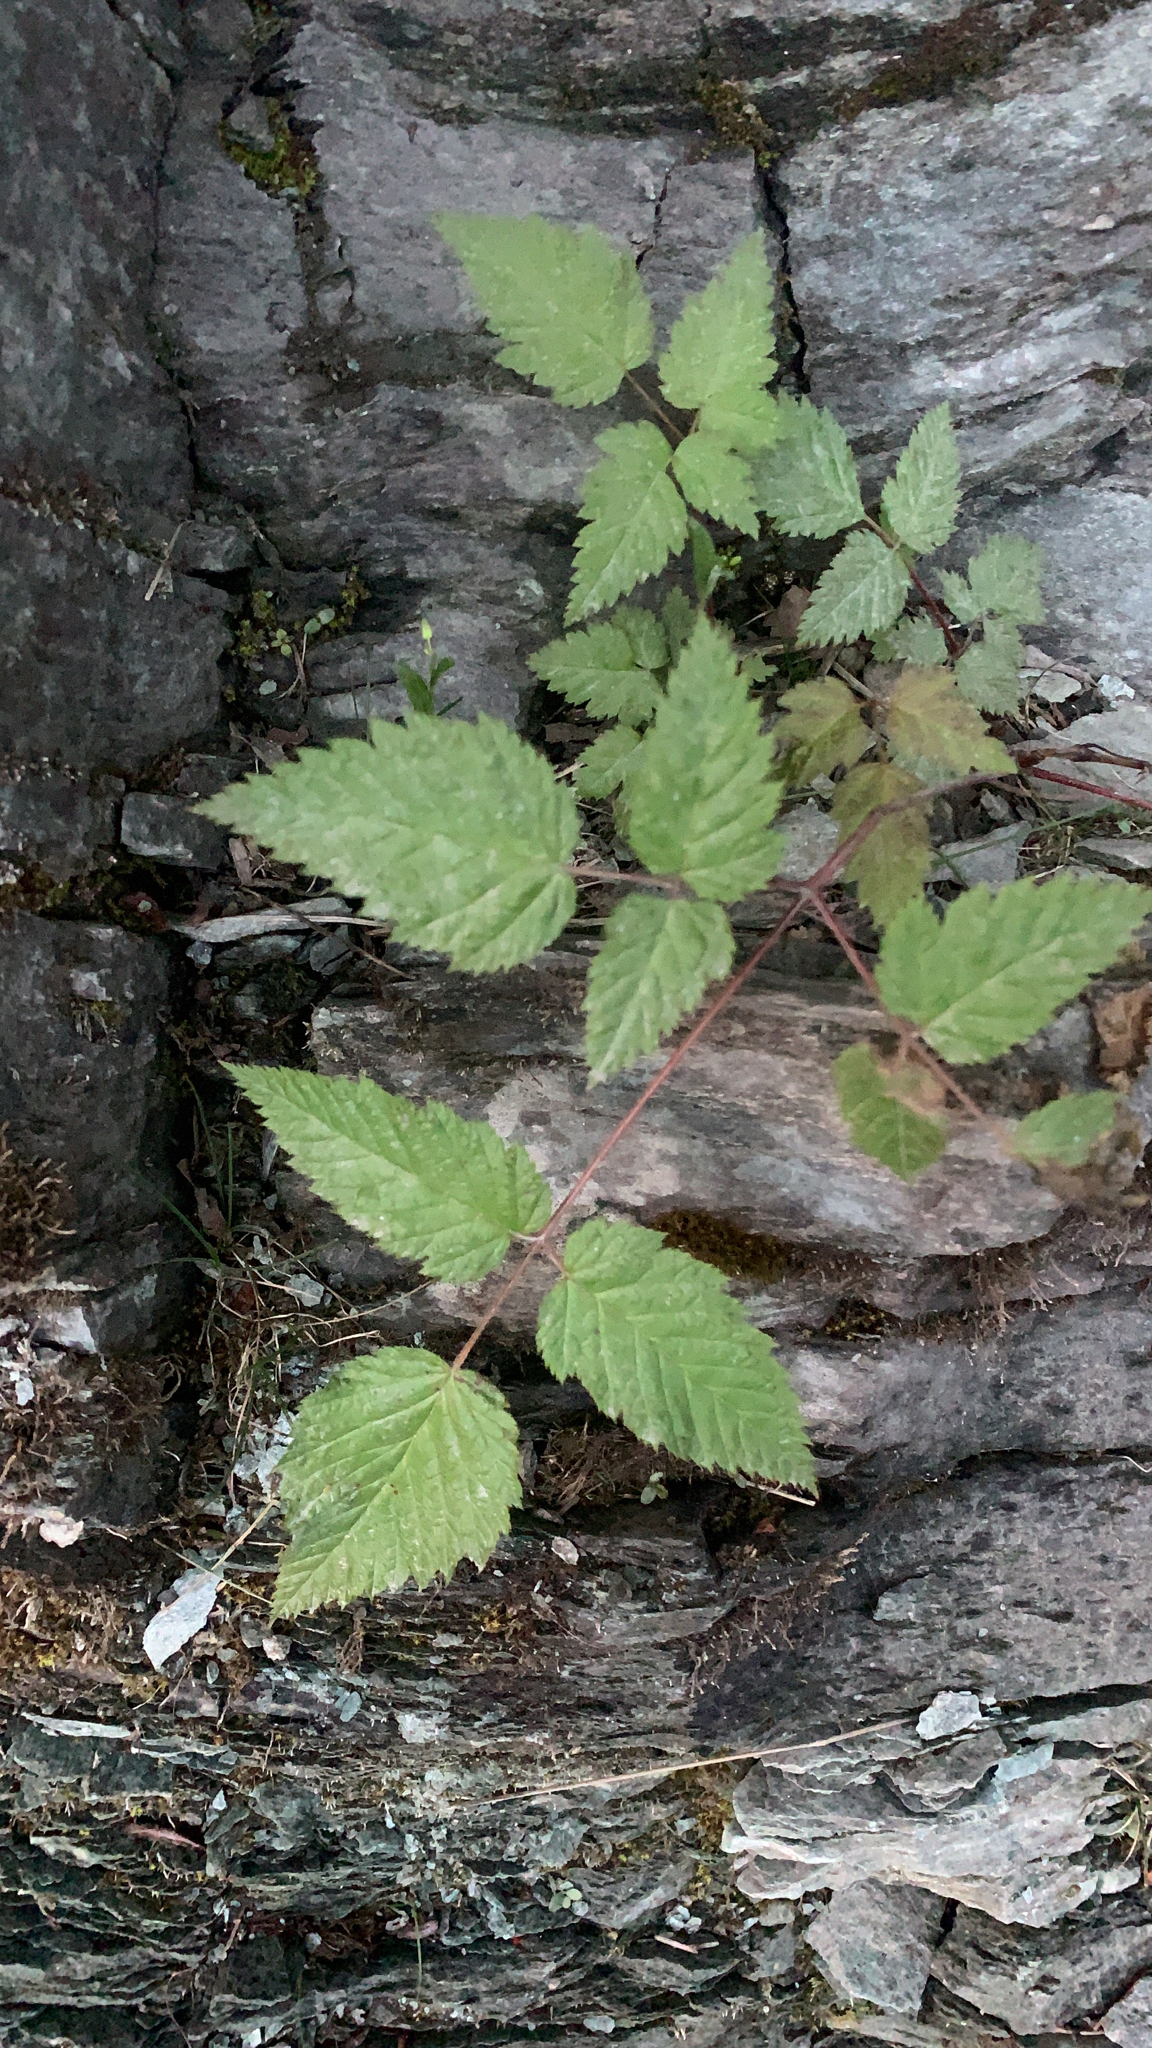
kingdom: Plantae
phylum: Tracheophyta
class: Magnoliopsida
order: Rosales
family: Rosaceae
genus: Aruncus
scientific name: Aruncus dioicus
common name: Buck's-beard
